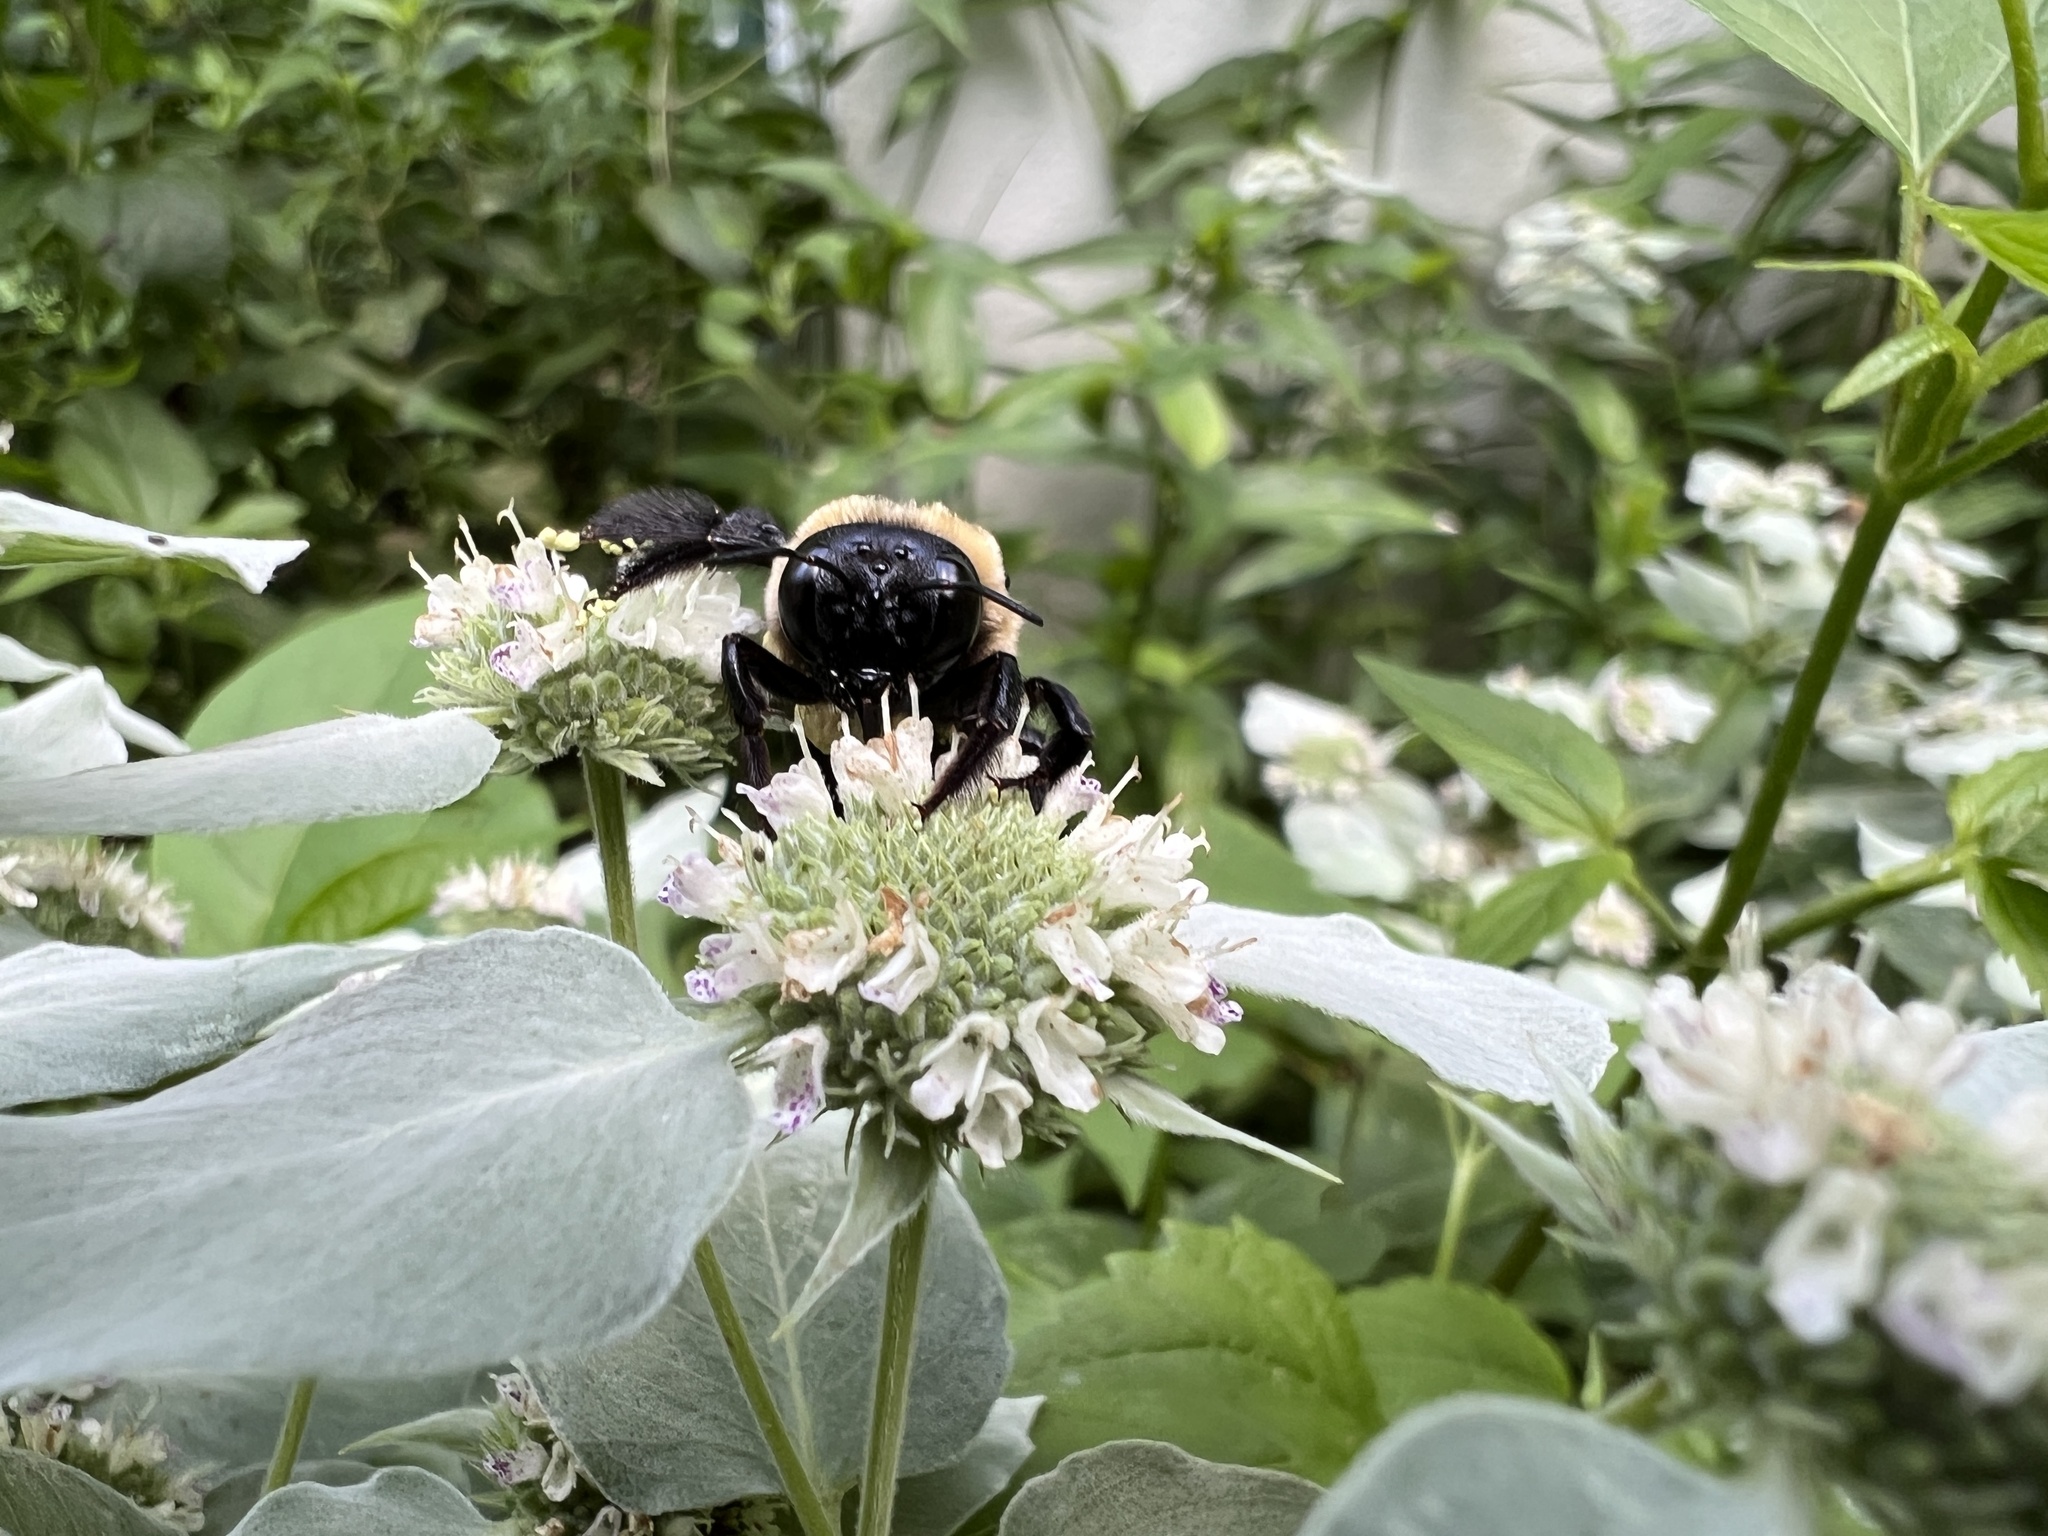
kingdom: Animalia
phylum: Arthropoda
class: Insecta
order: Hymenoptera
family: Apidae
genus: Xylocopa
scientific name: Xylocopa virginica
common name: Carpenter bee
